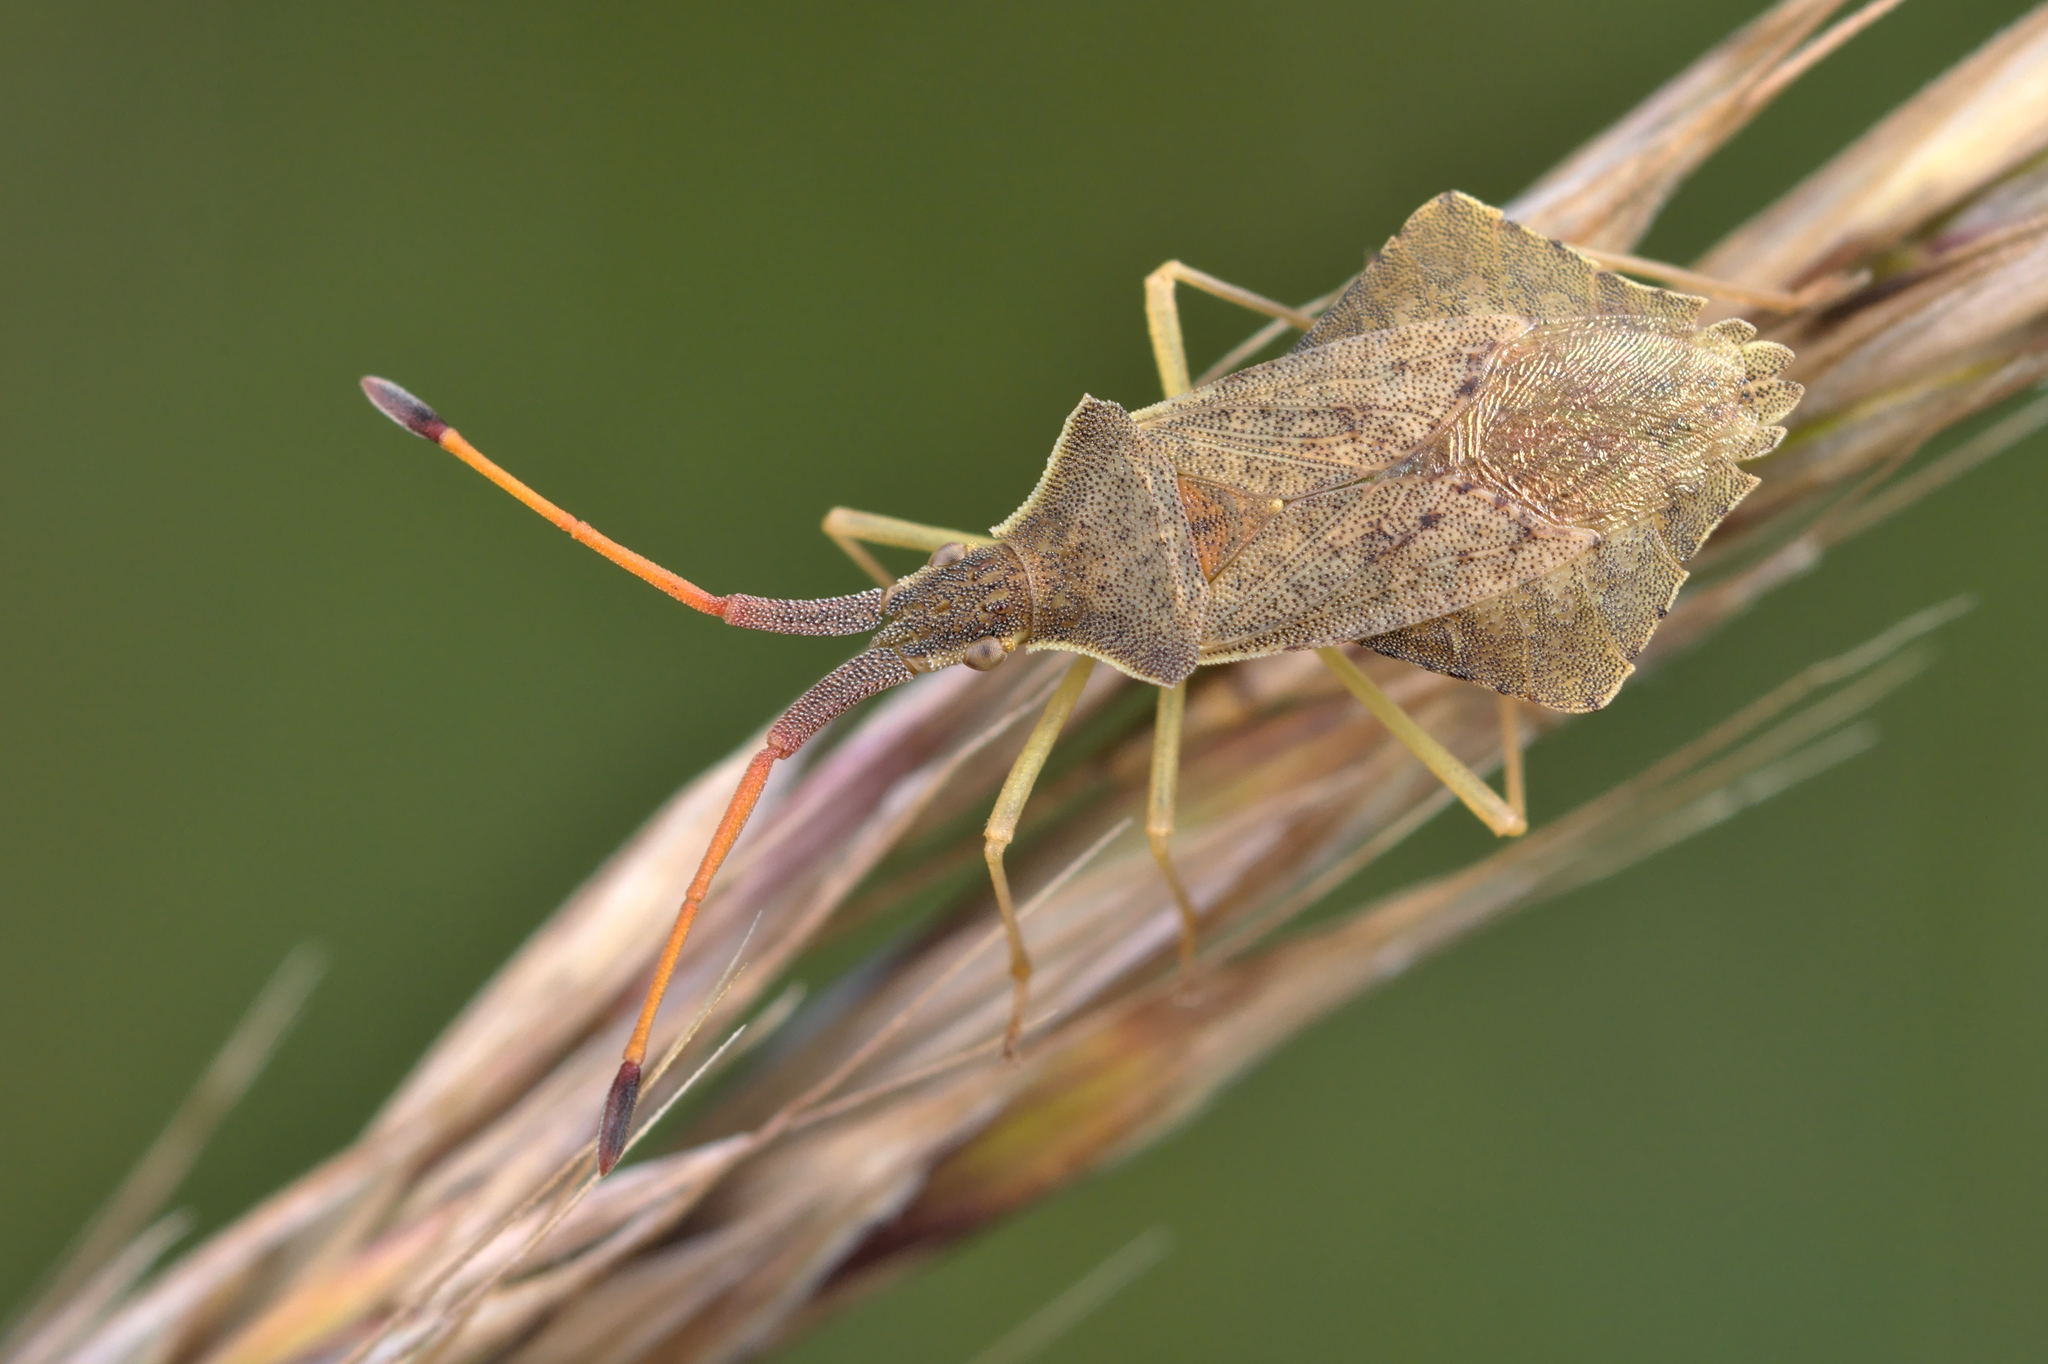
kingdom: Animalia
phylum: Arthropoda
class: Insecta
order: Hemiptera
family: Coreidae
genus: Syromastus
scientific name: Syromastus rhombeus
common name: Rhombic leatherbug
